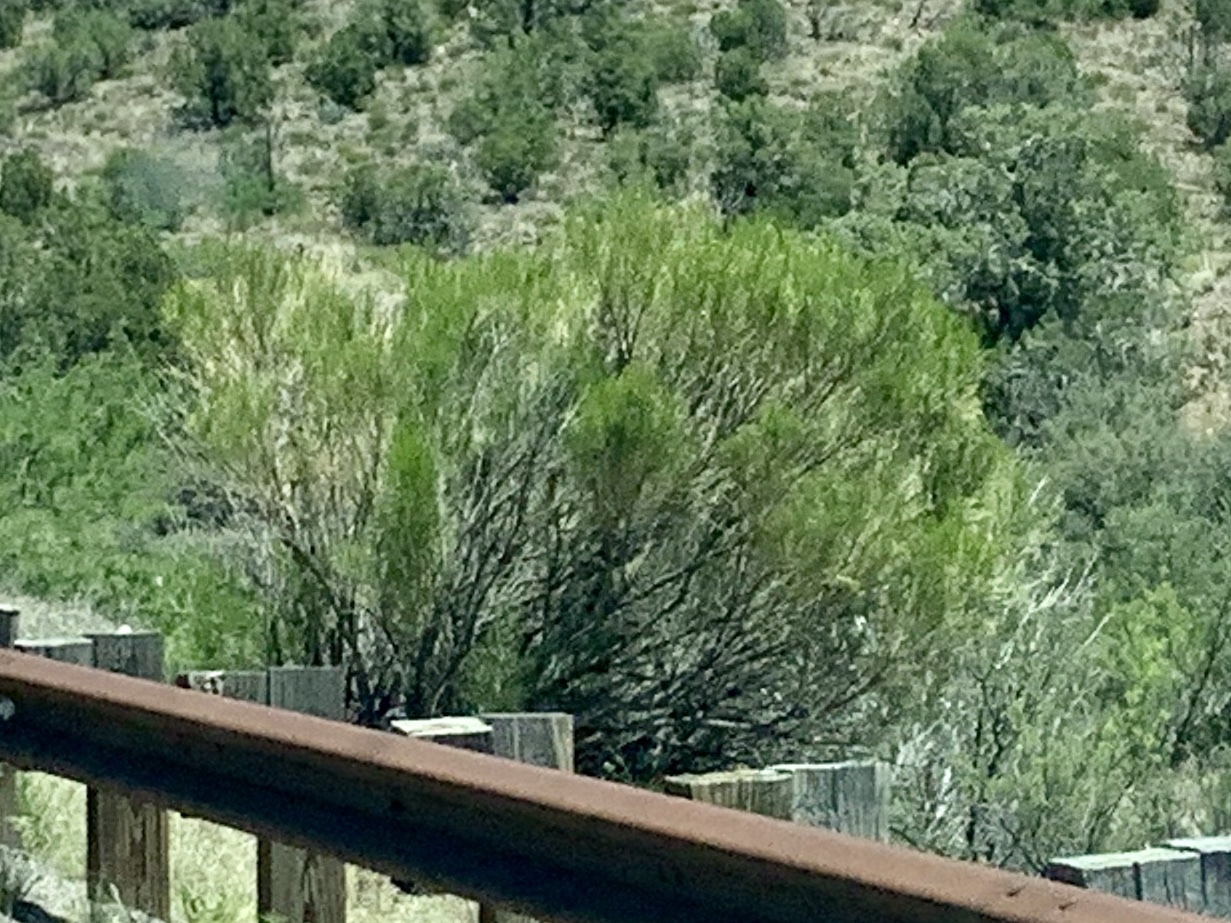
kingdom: Plantae
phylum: Tracheophyta
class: Magnoliopsida
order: Asterales
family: Asteraceae
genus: Baccharis
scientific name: Baccharis sarothroides
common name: Desert-broom
